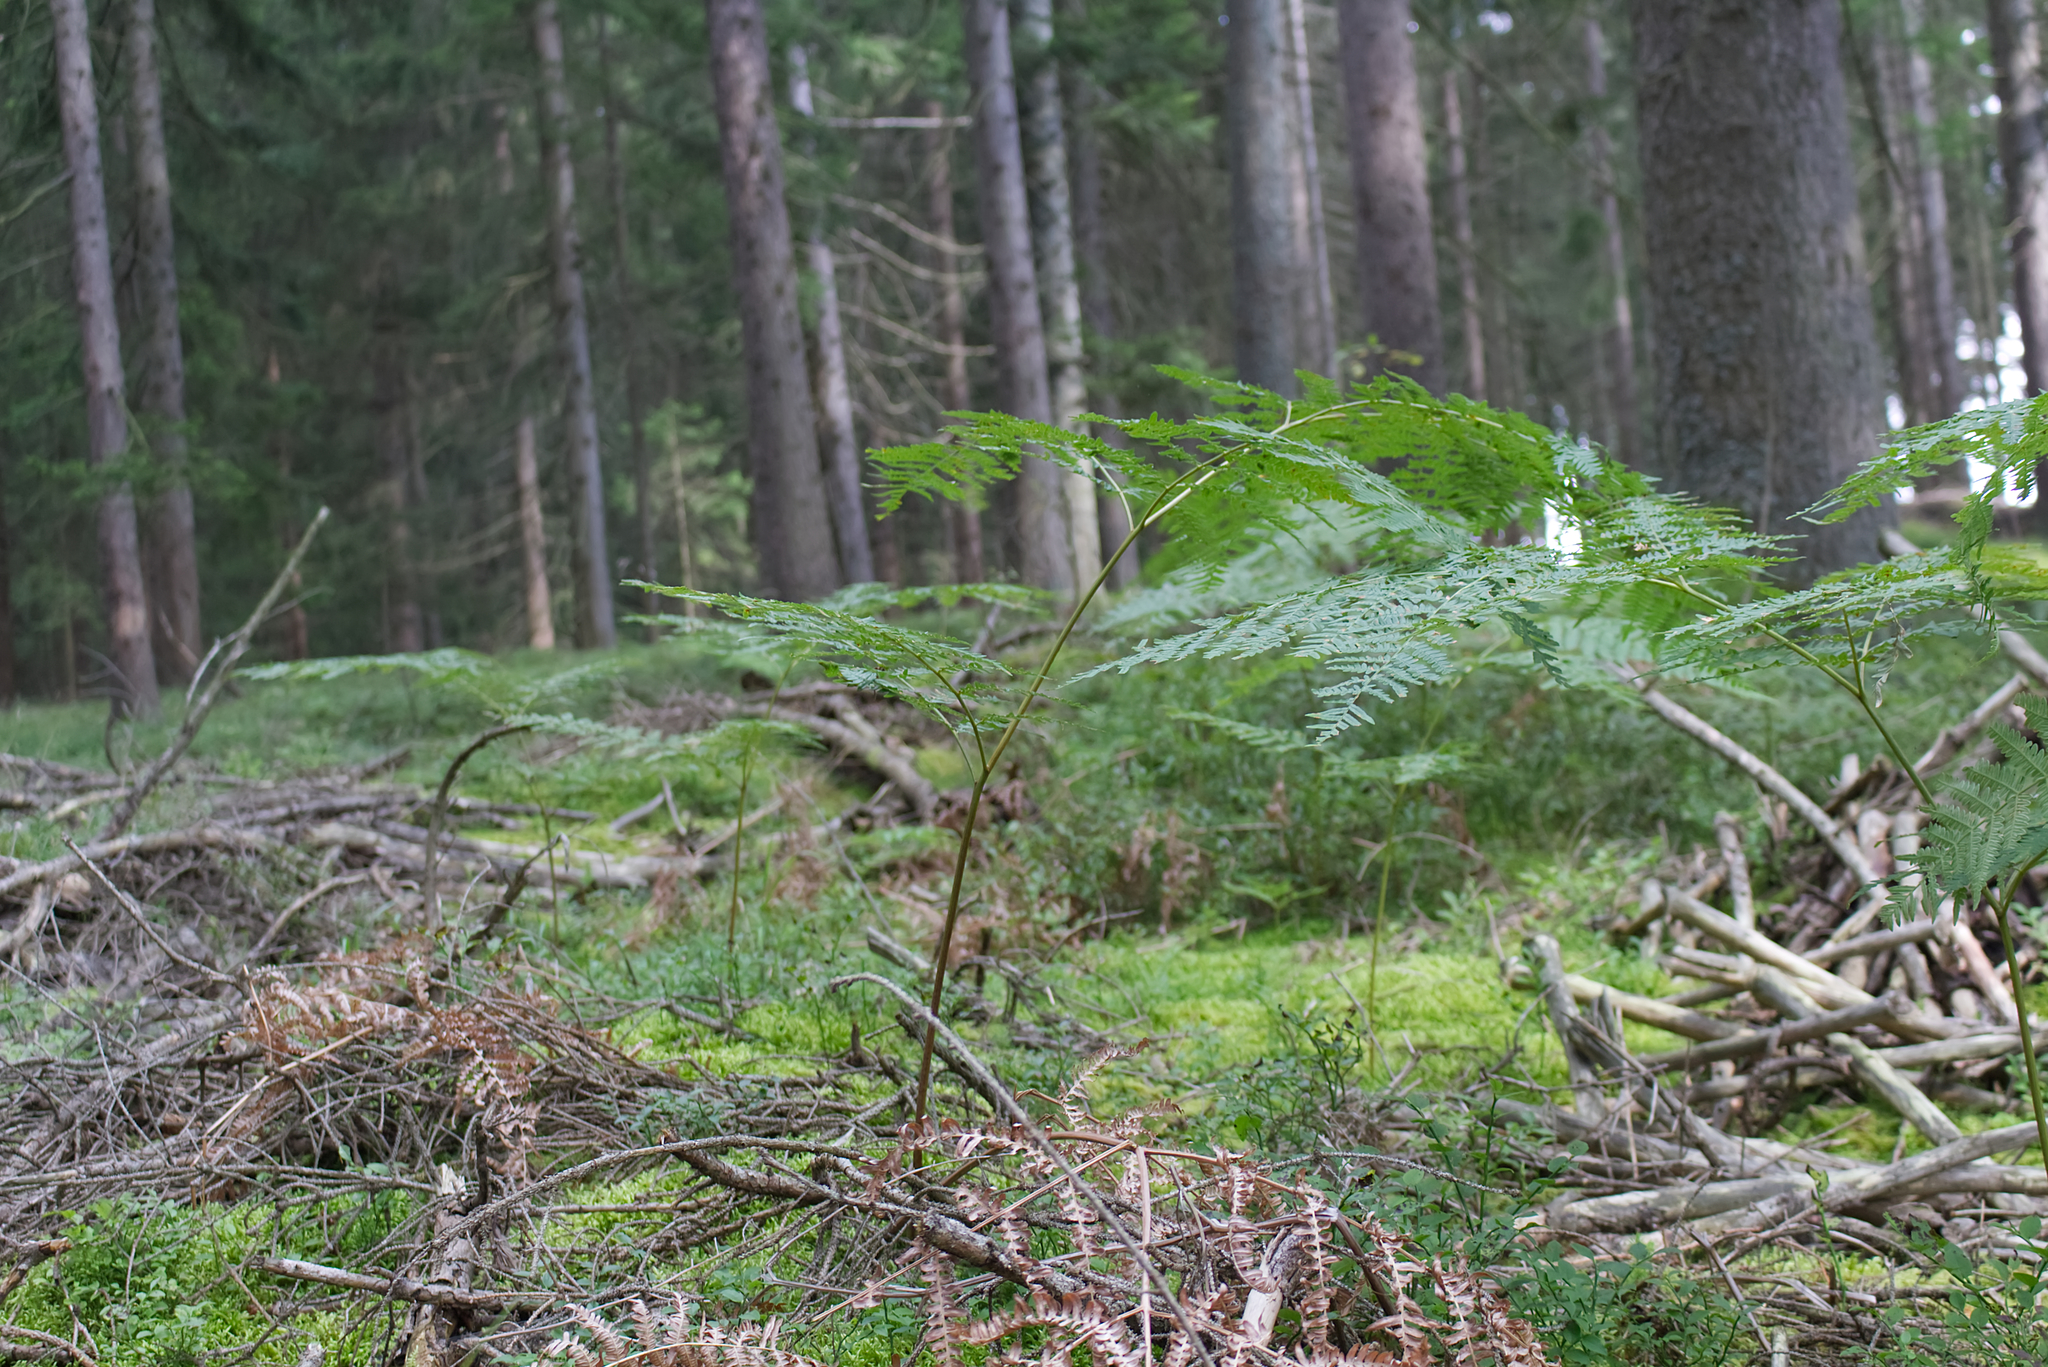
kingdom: Plantae
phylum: Tracheophyta
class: Polypodiopsida
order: Polypodiales
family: Dennstaedtiaceae
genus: Pteridium
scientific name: Pteridium aquilinum
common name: Bracken
